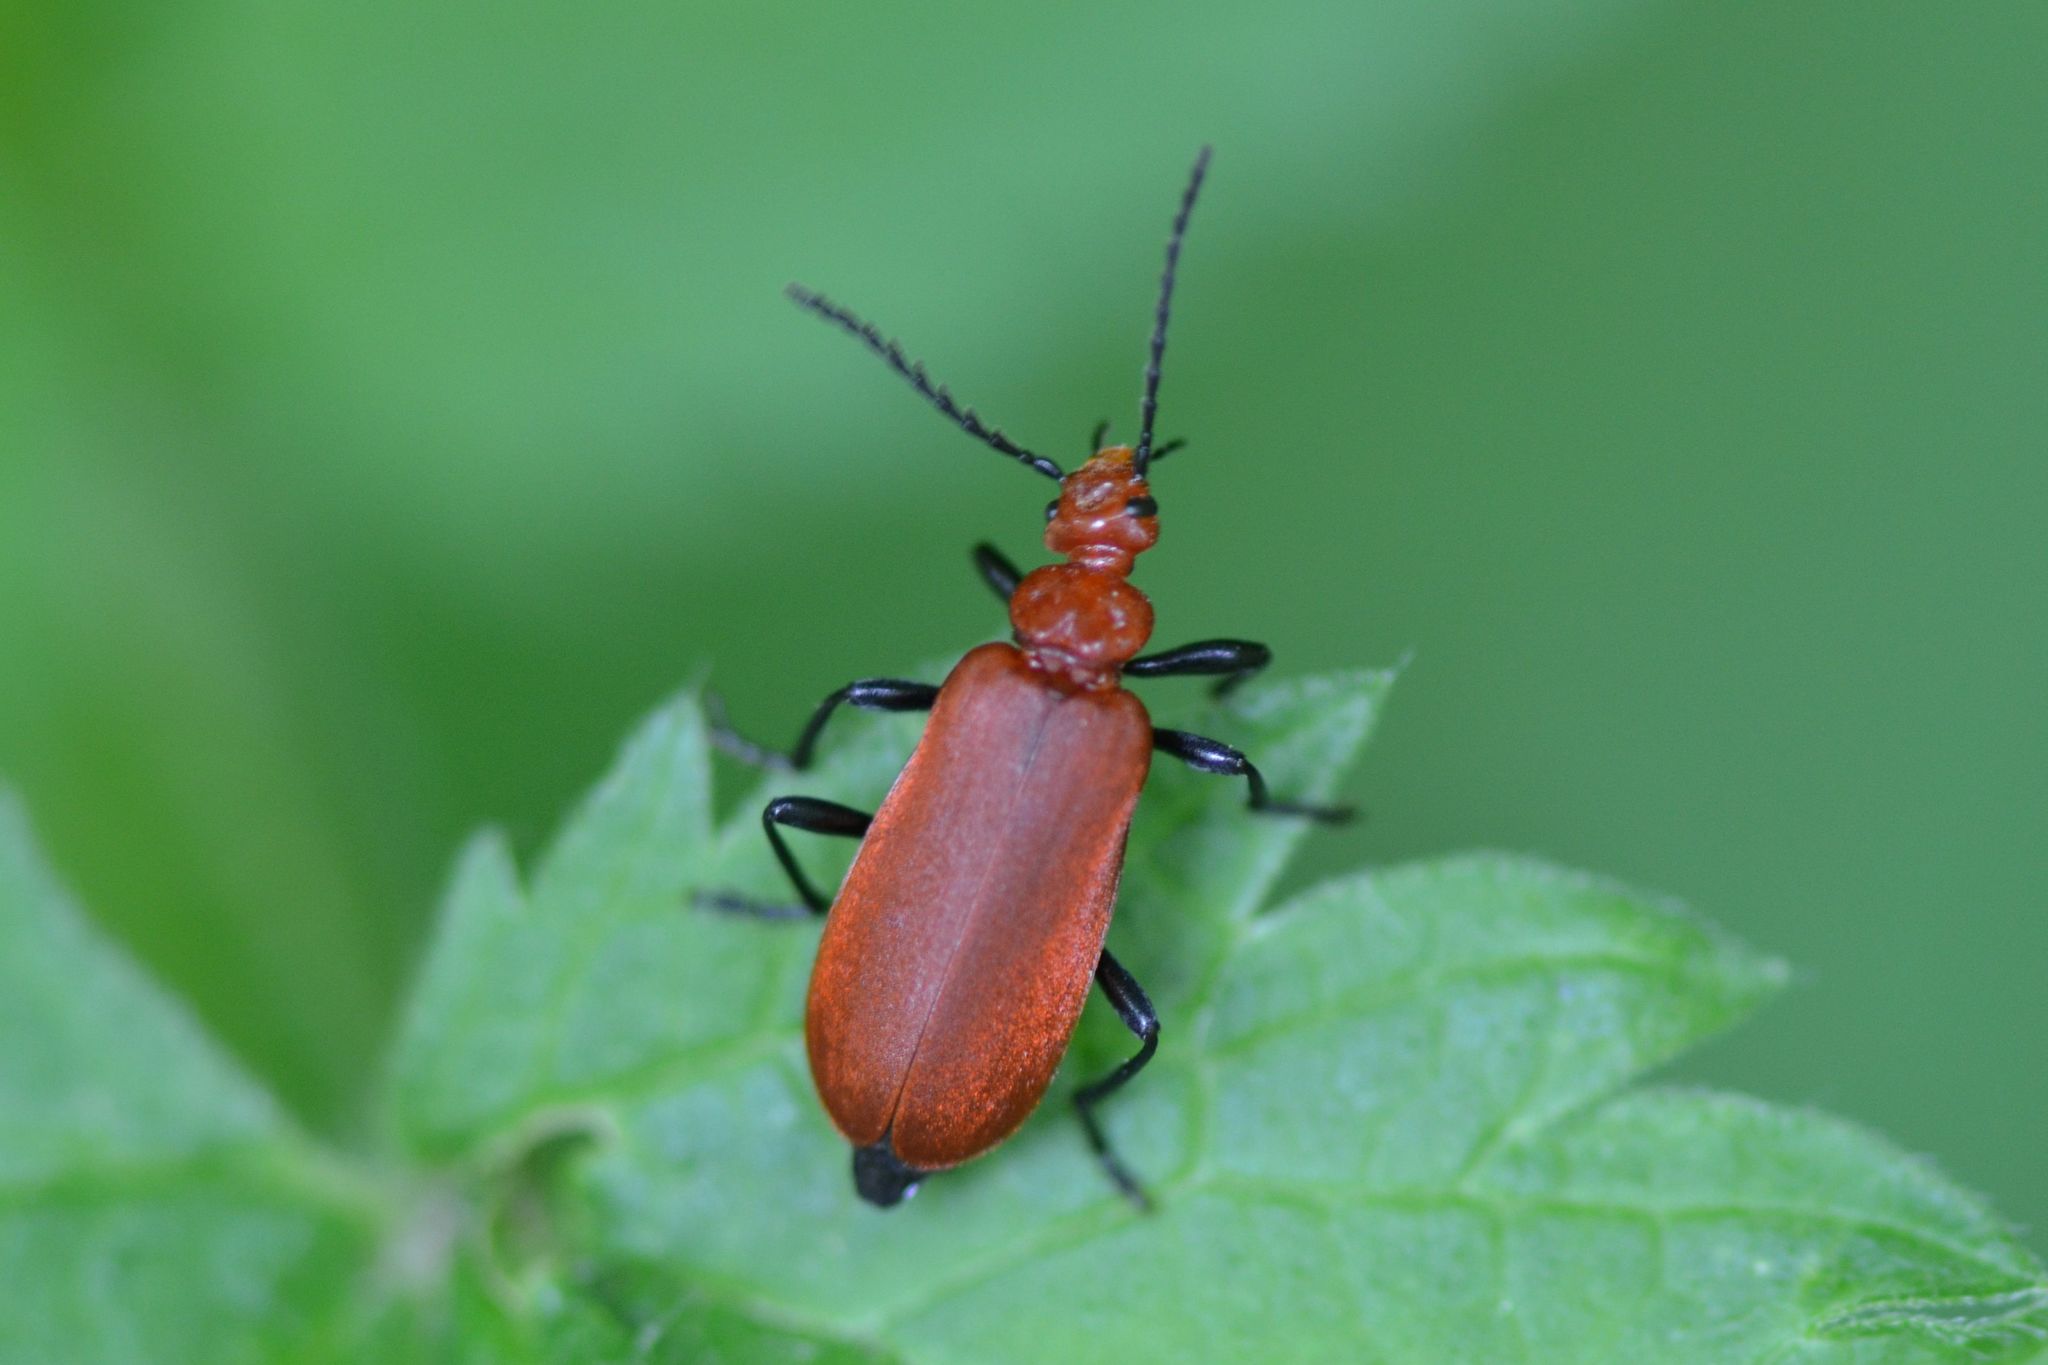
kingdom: Animalia
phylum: Arthropoda
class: Insecta
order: Coleoptera
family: Pyrochroidae
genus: Pyrochroa
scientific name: Pyrochroa serraticornis
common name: Red-headed cardinal beetle
